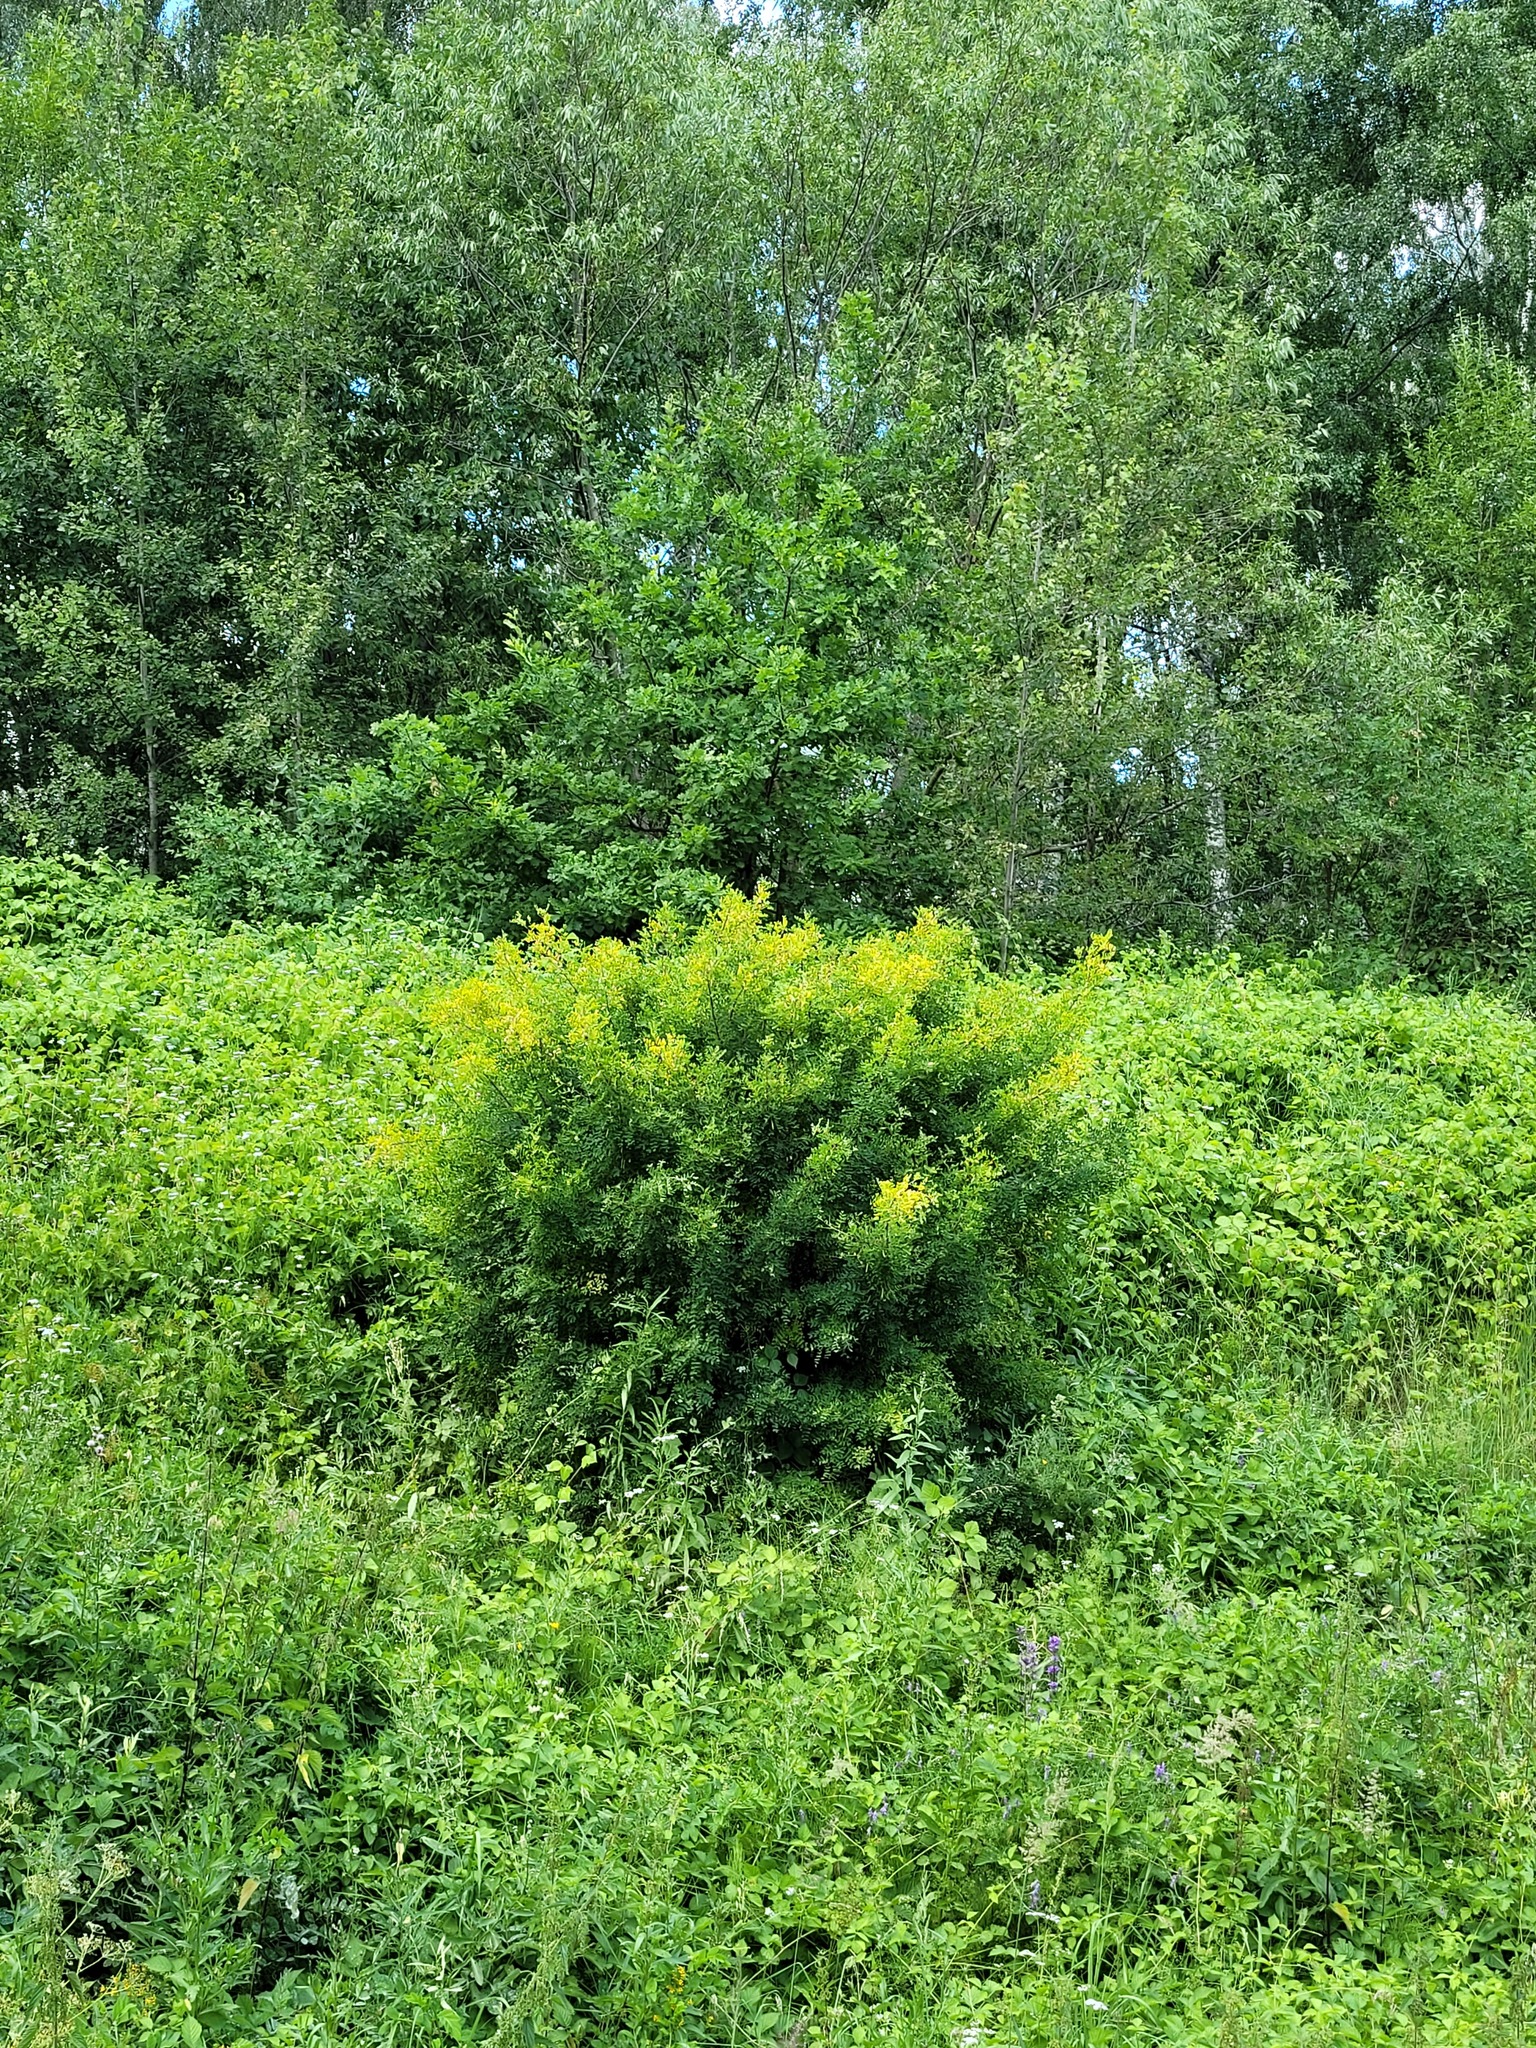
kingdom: Plantae
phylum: Tracheophyta
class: Magnoliopsida
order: Fabales
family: Fabaceae
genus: Caragana
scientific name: Caragana arborescens
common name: Siberian peashrub
